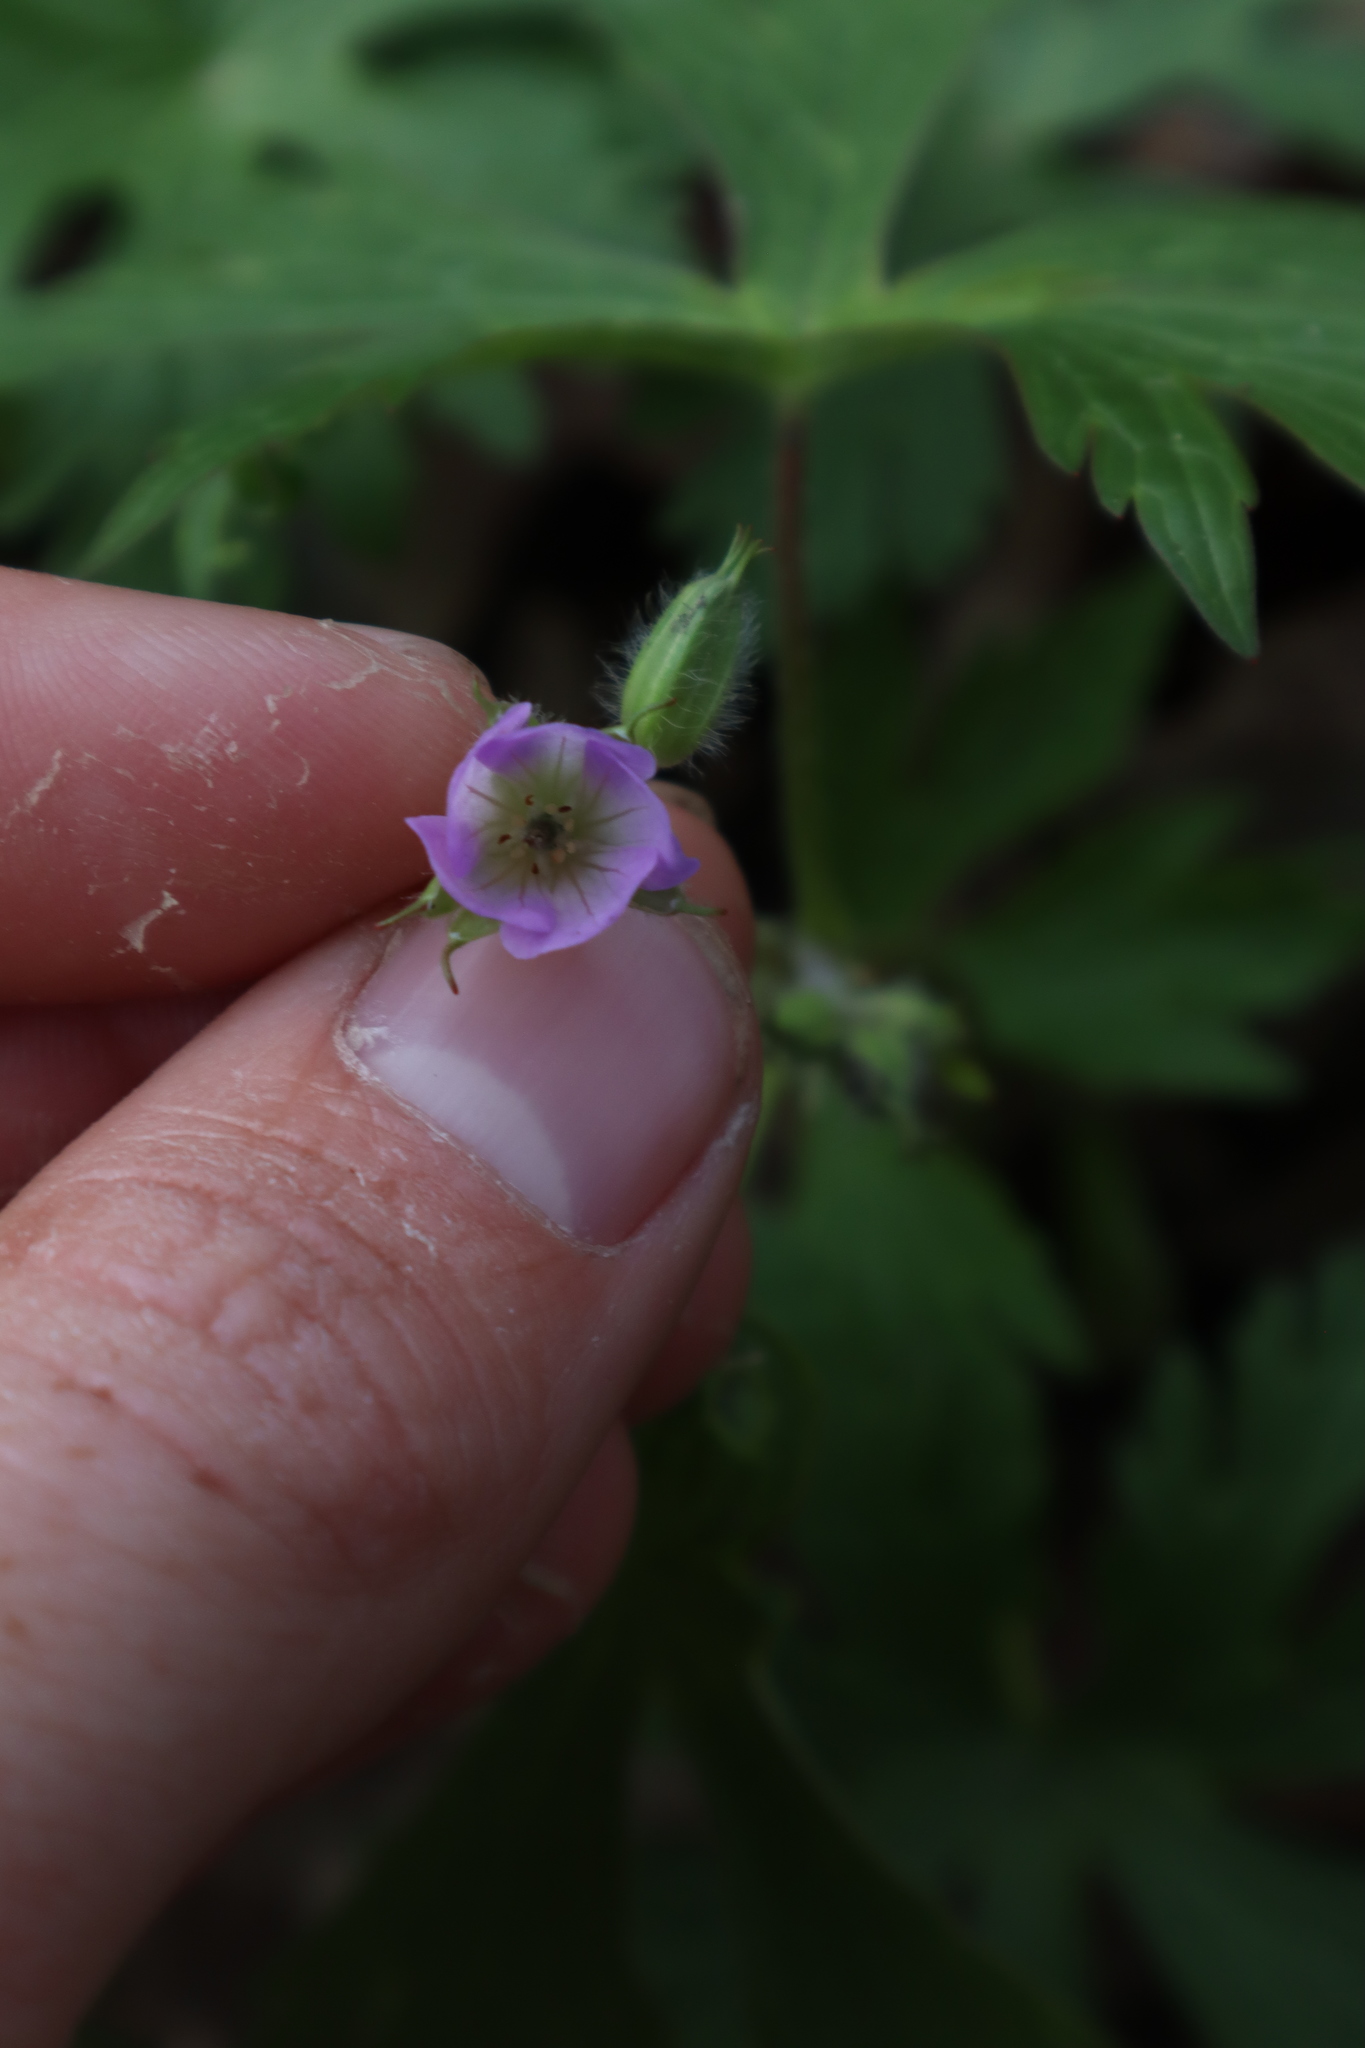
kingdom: Plantae
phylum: Tracheophyta
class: Magnoliopsida
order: Geraniales
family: Geraniaceae
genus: Geranium
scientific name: Geranium maculatum
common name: Spotted geranium
